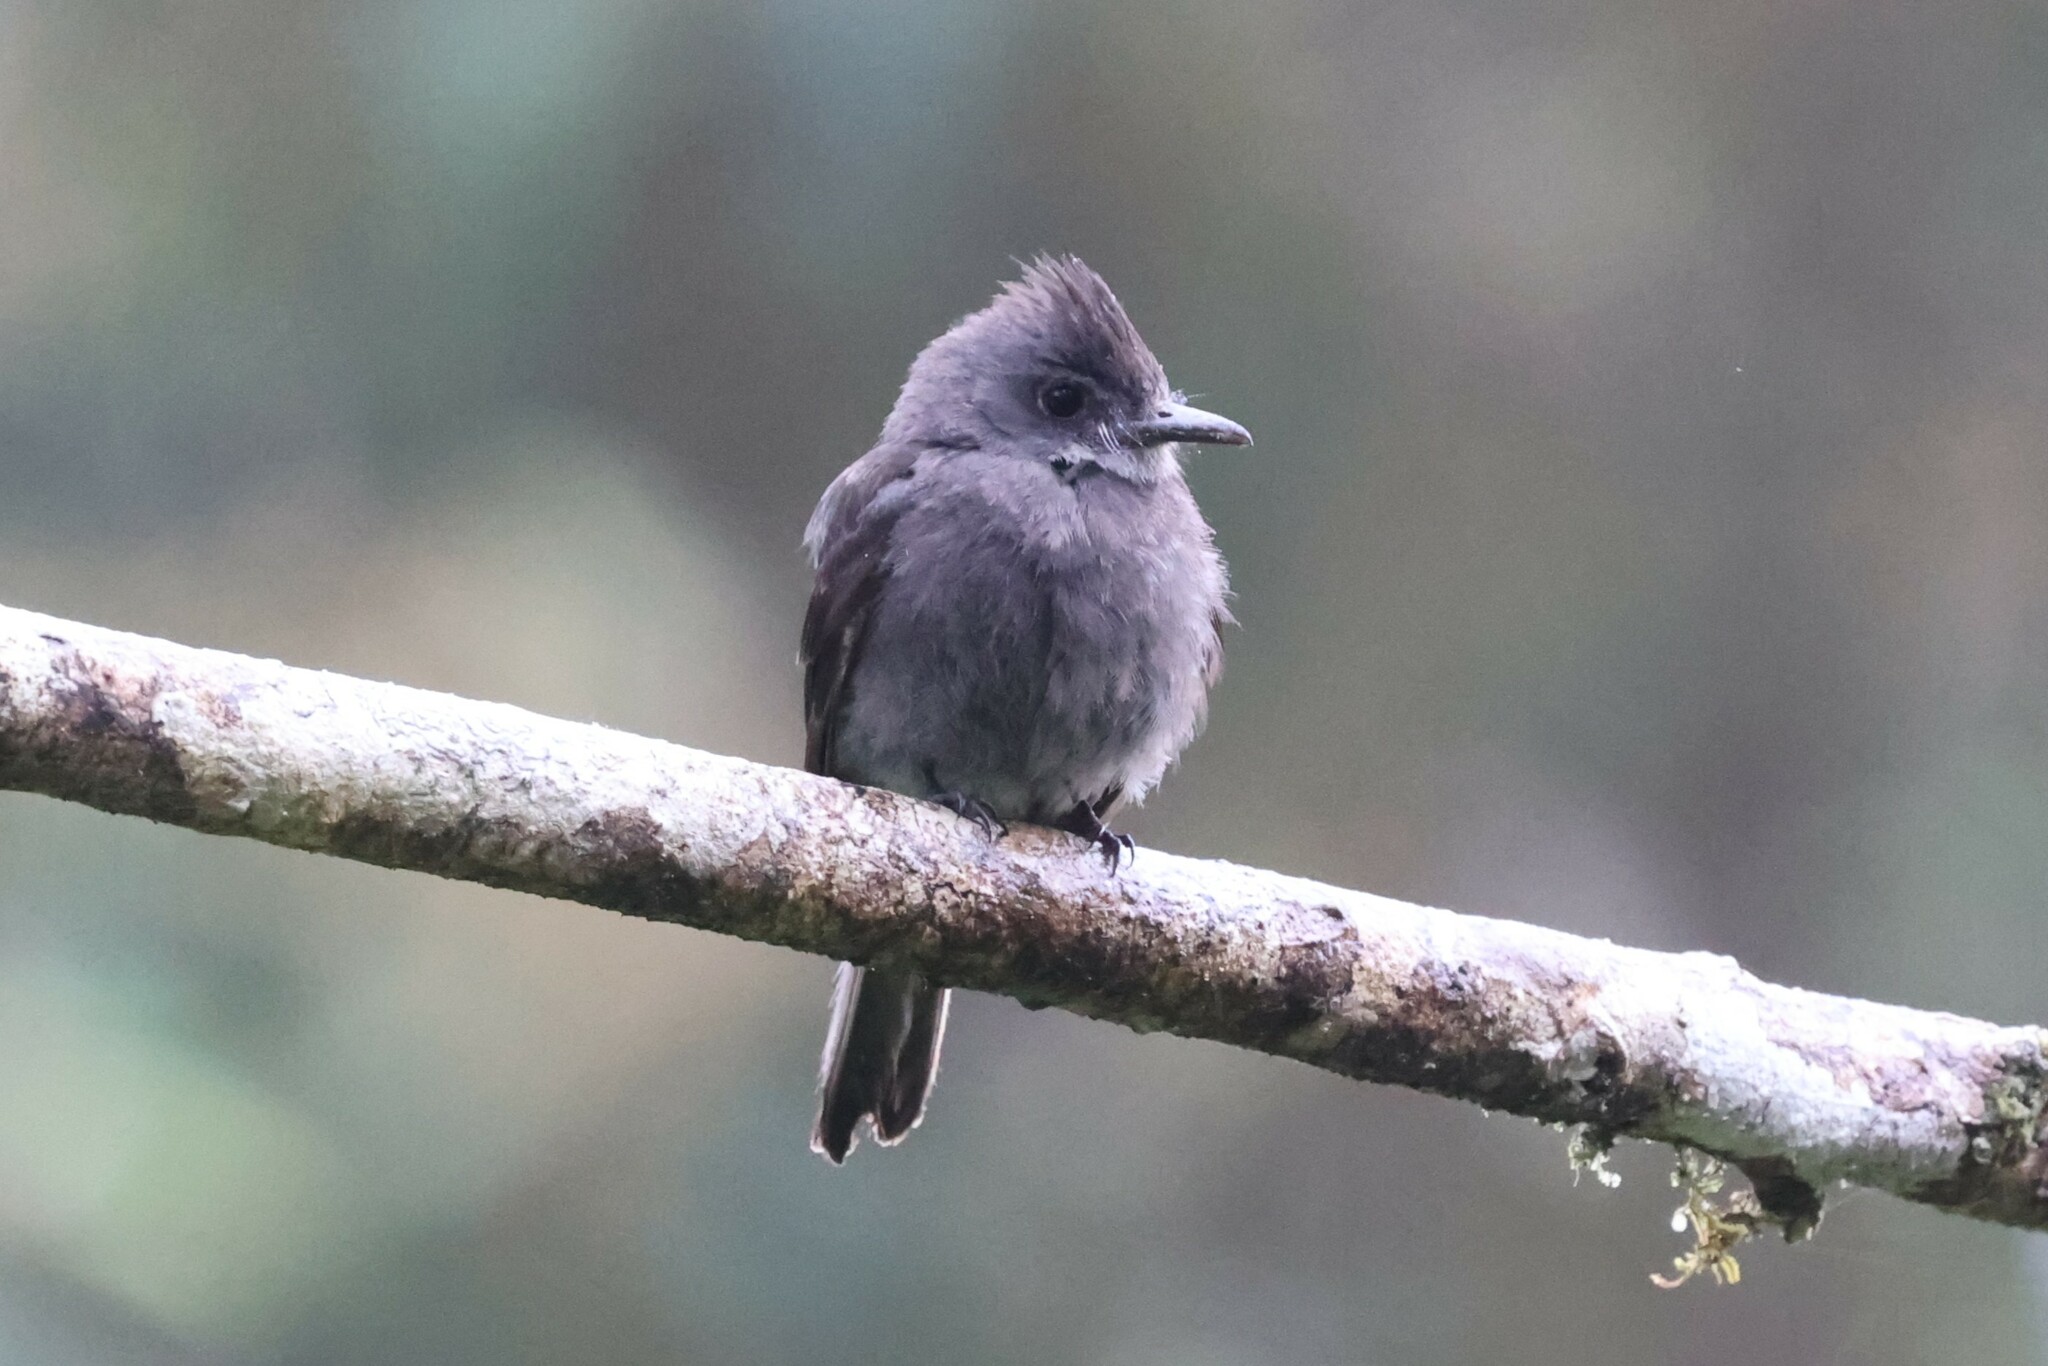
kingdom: Animalia
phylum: Chordata
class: Aves
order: Passeriformes
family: Tyrannidae
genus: Contopus
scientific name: Contopus fumigatus
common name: Smoke-colored pewee
